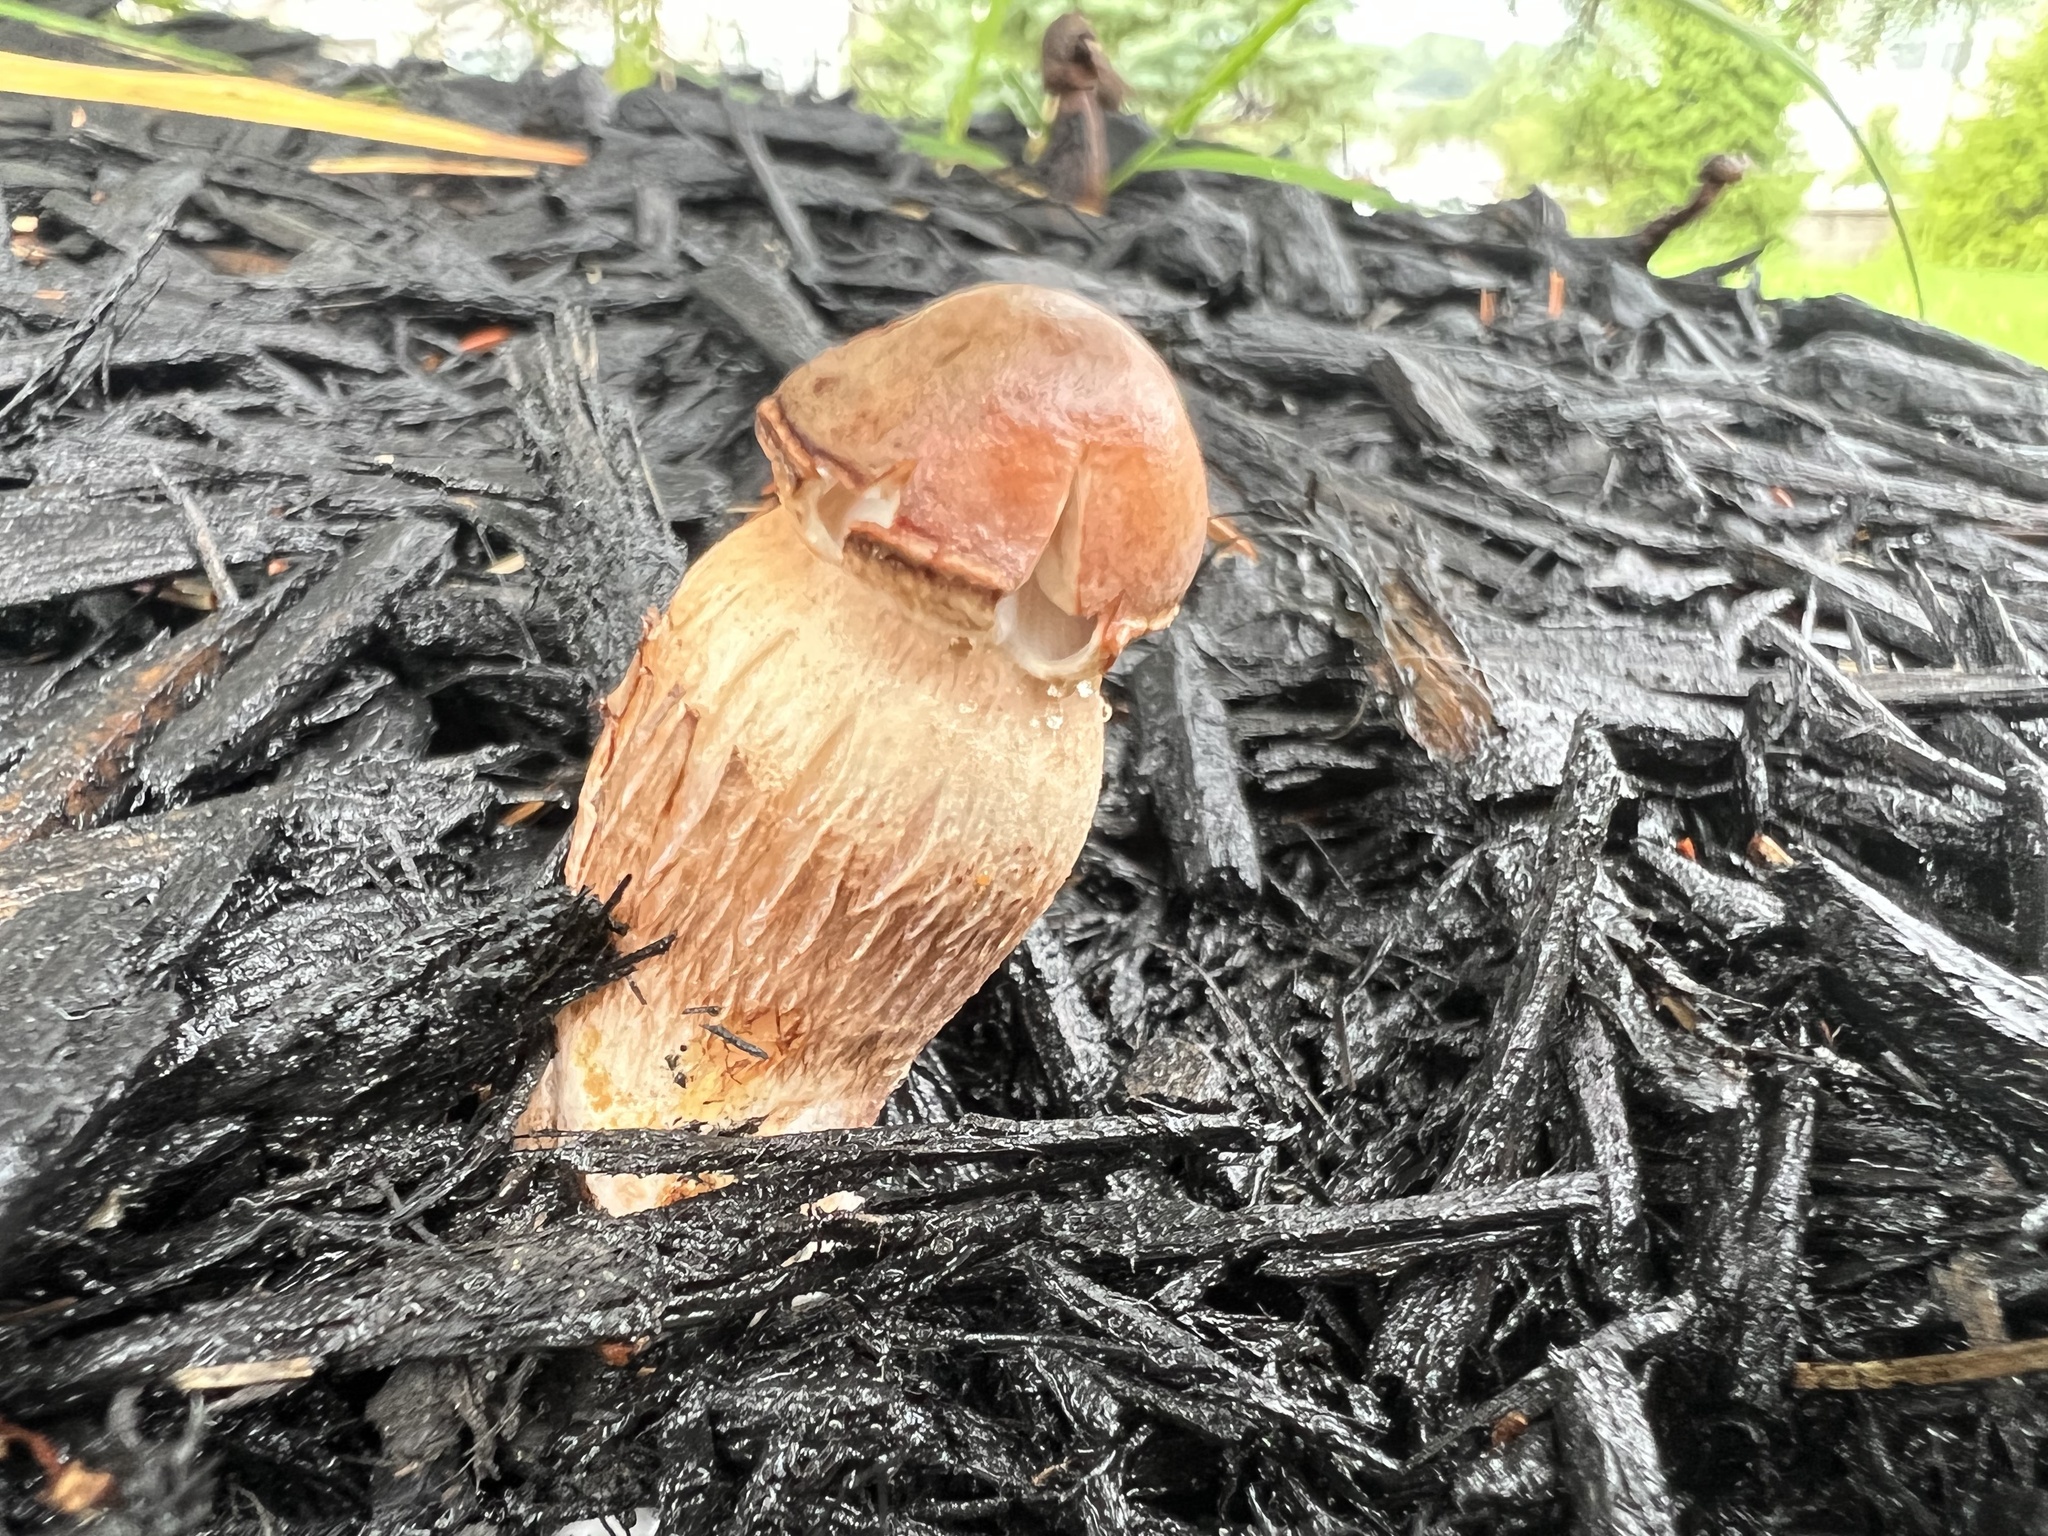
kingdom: Fungi
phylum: Basidiomycota
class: Agaricomycetes
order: Agaricales
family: Agaricaceae
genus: Leucoagaricus
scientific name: Leucoagaricus americanus
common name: Reddening lepiota
